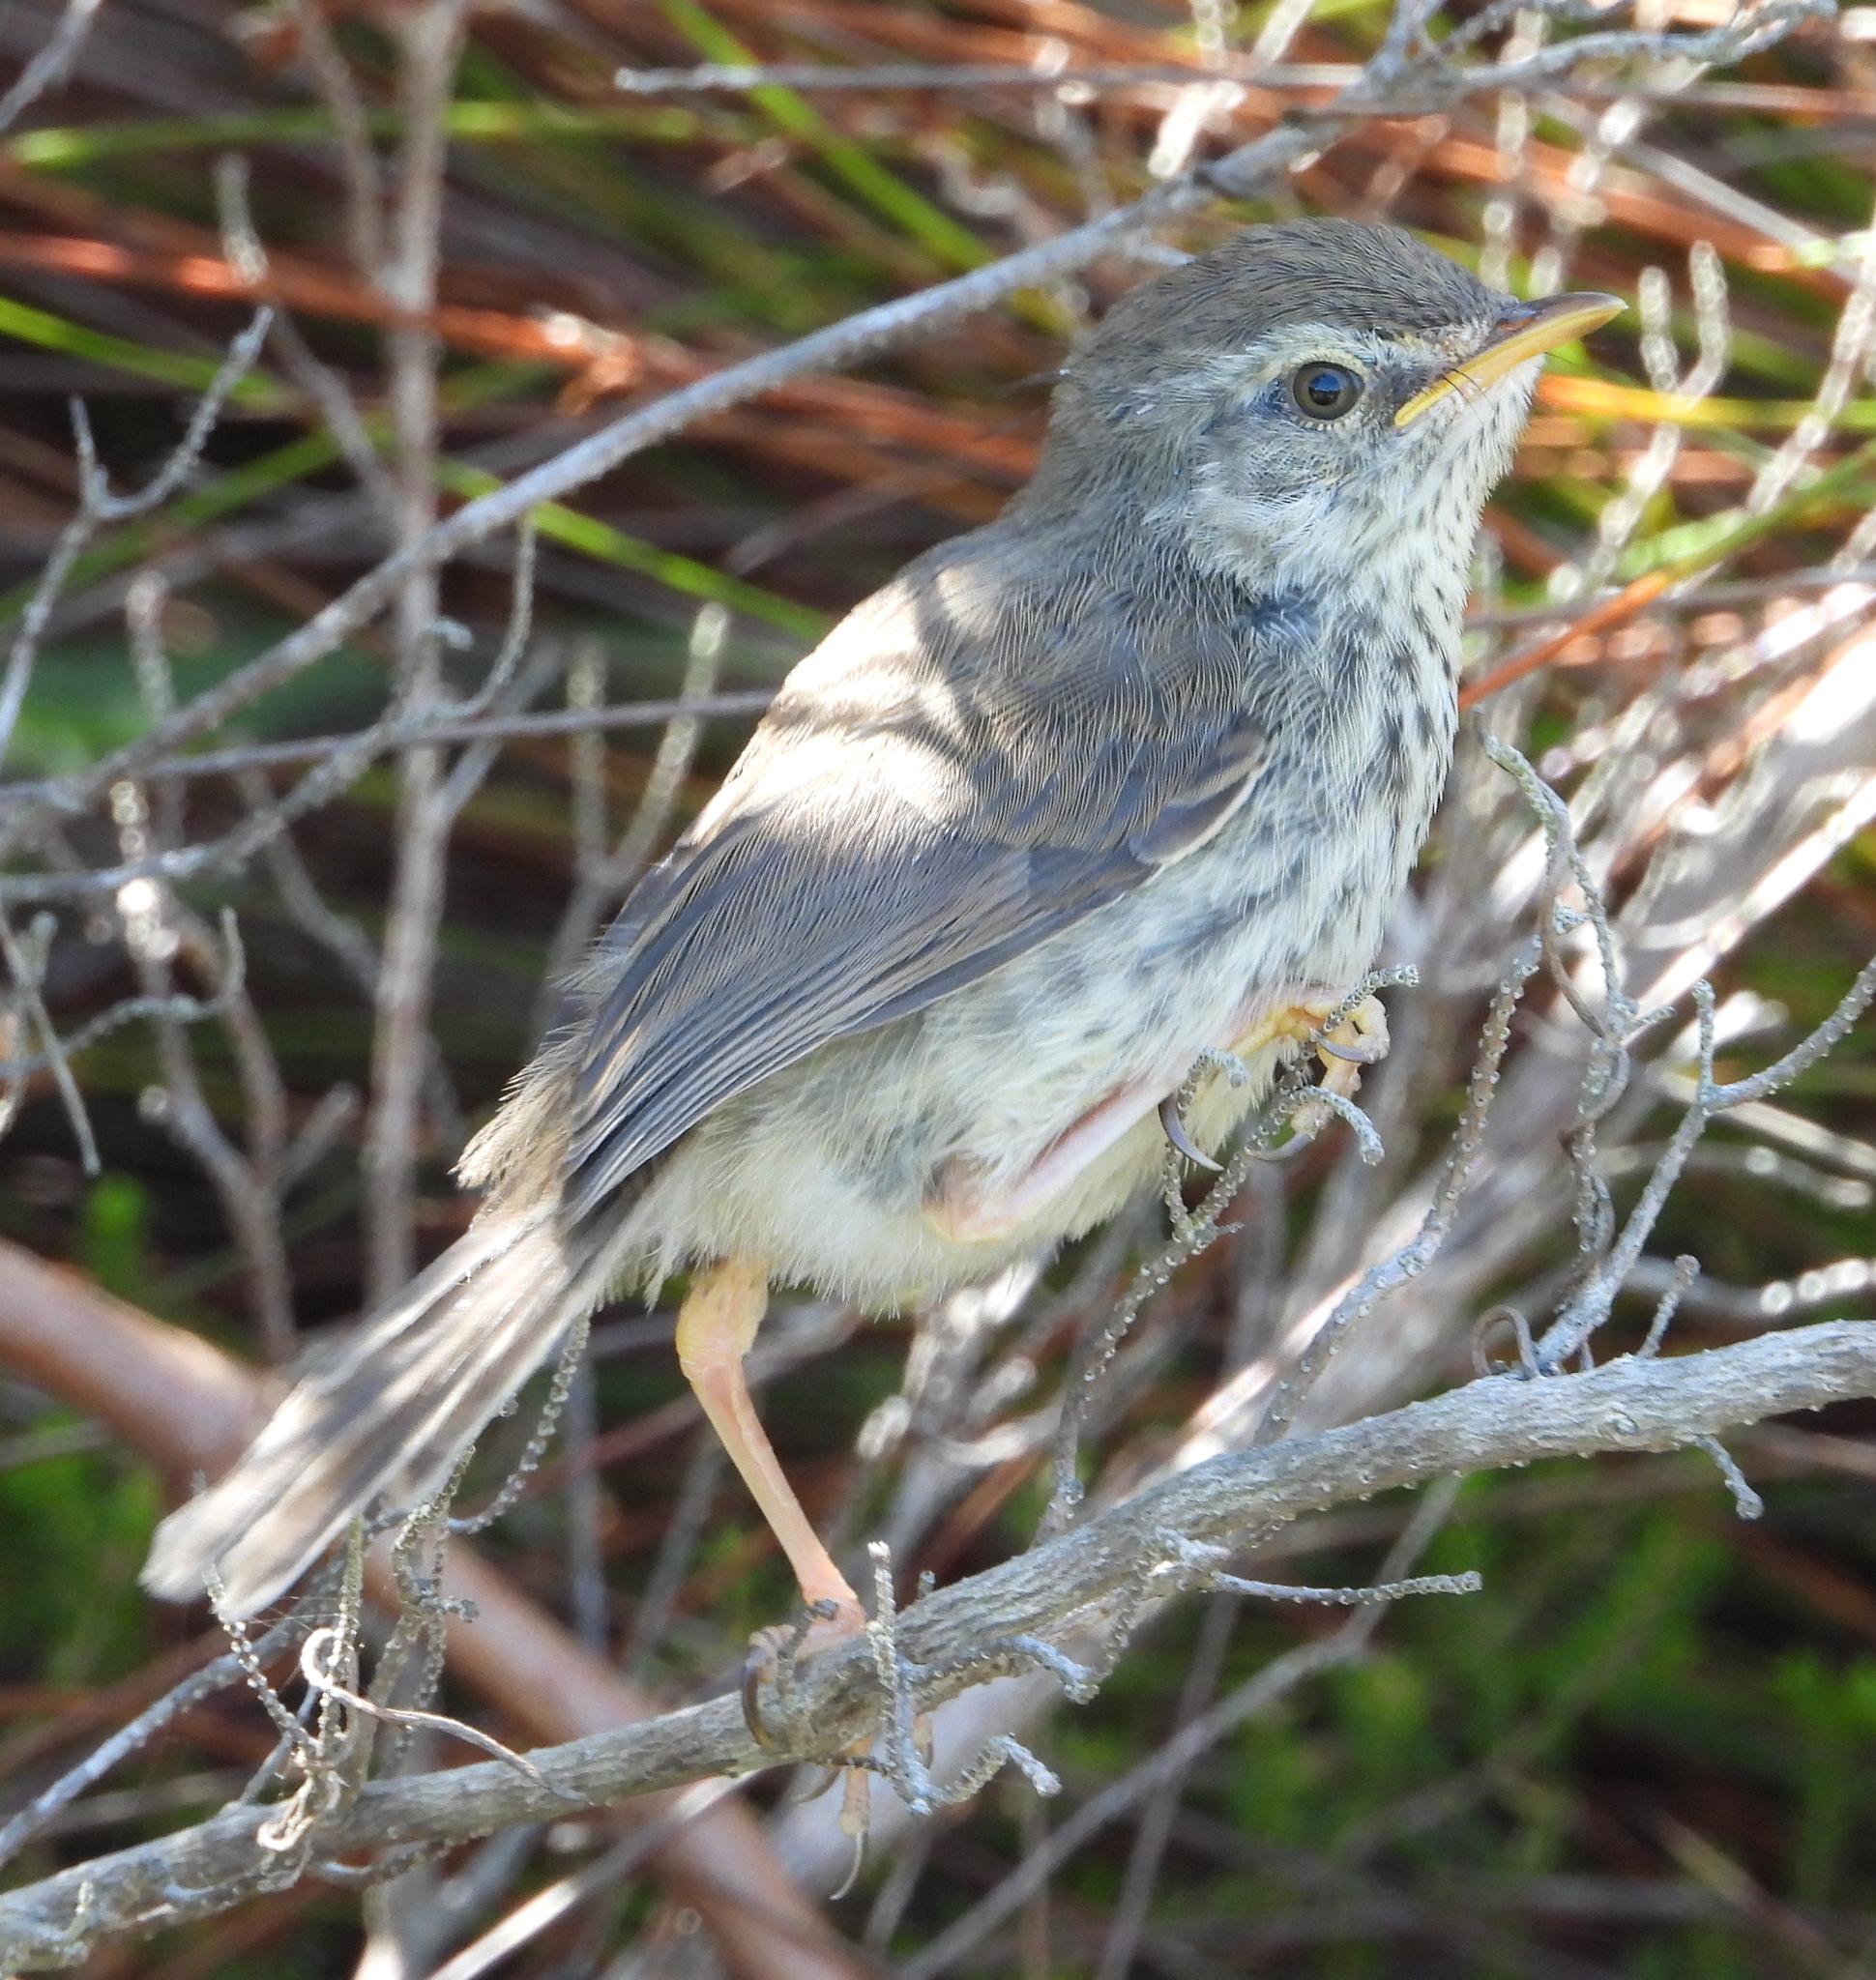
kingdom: Animalia
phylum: Chordata
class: Aves
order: Passeriformes
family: Cisticolidae
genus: Prinia
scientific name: Prinia maculosa
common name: Karoo prinia
